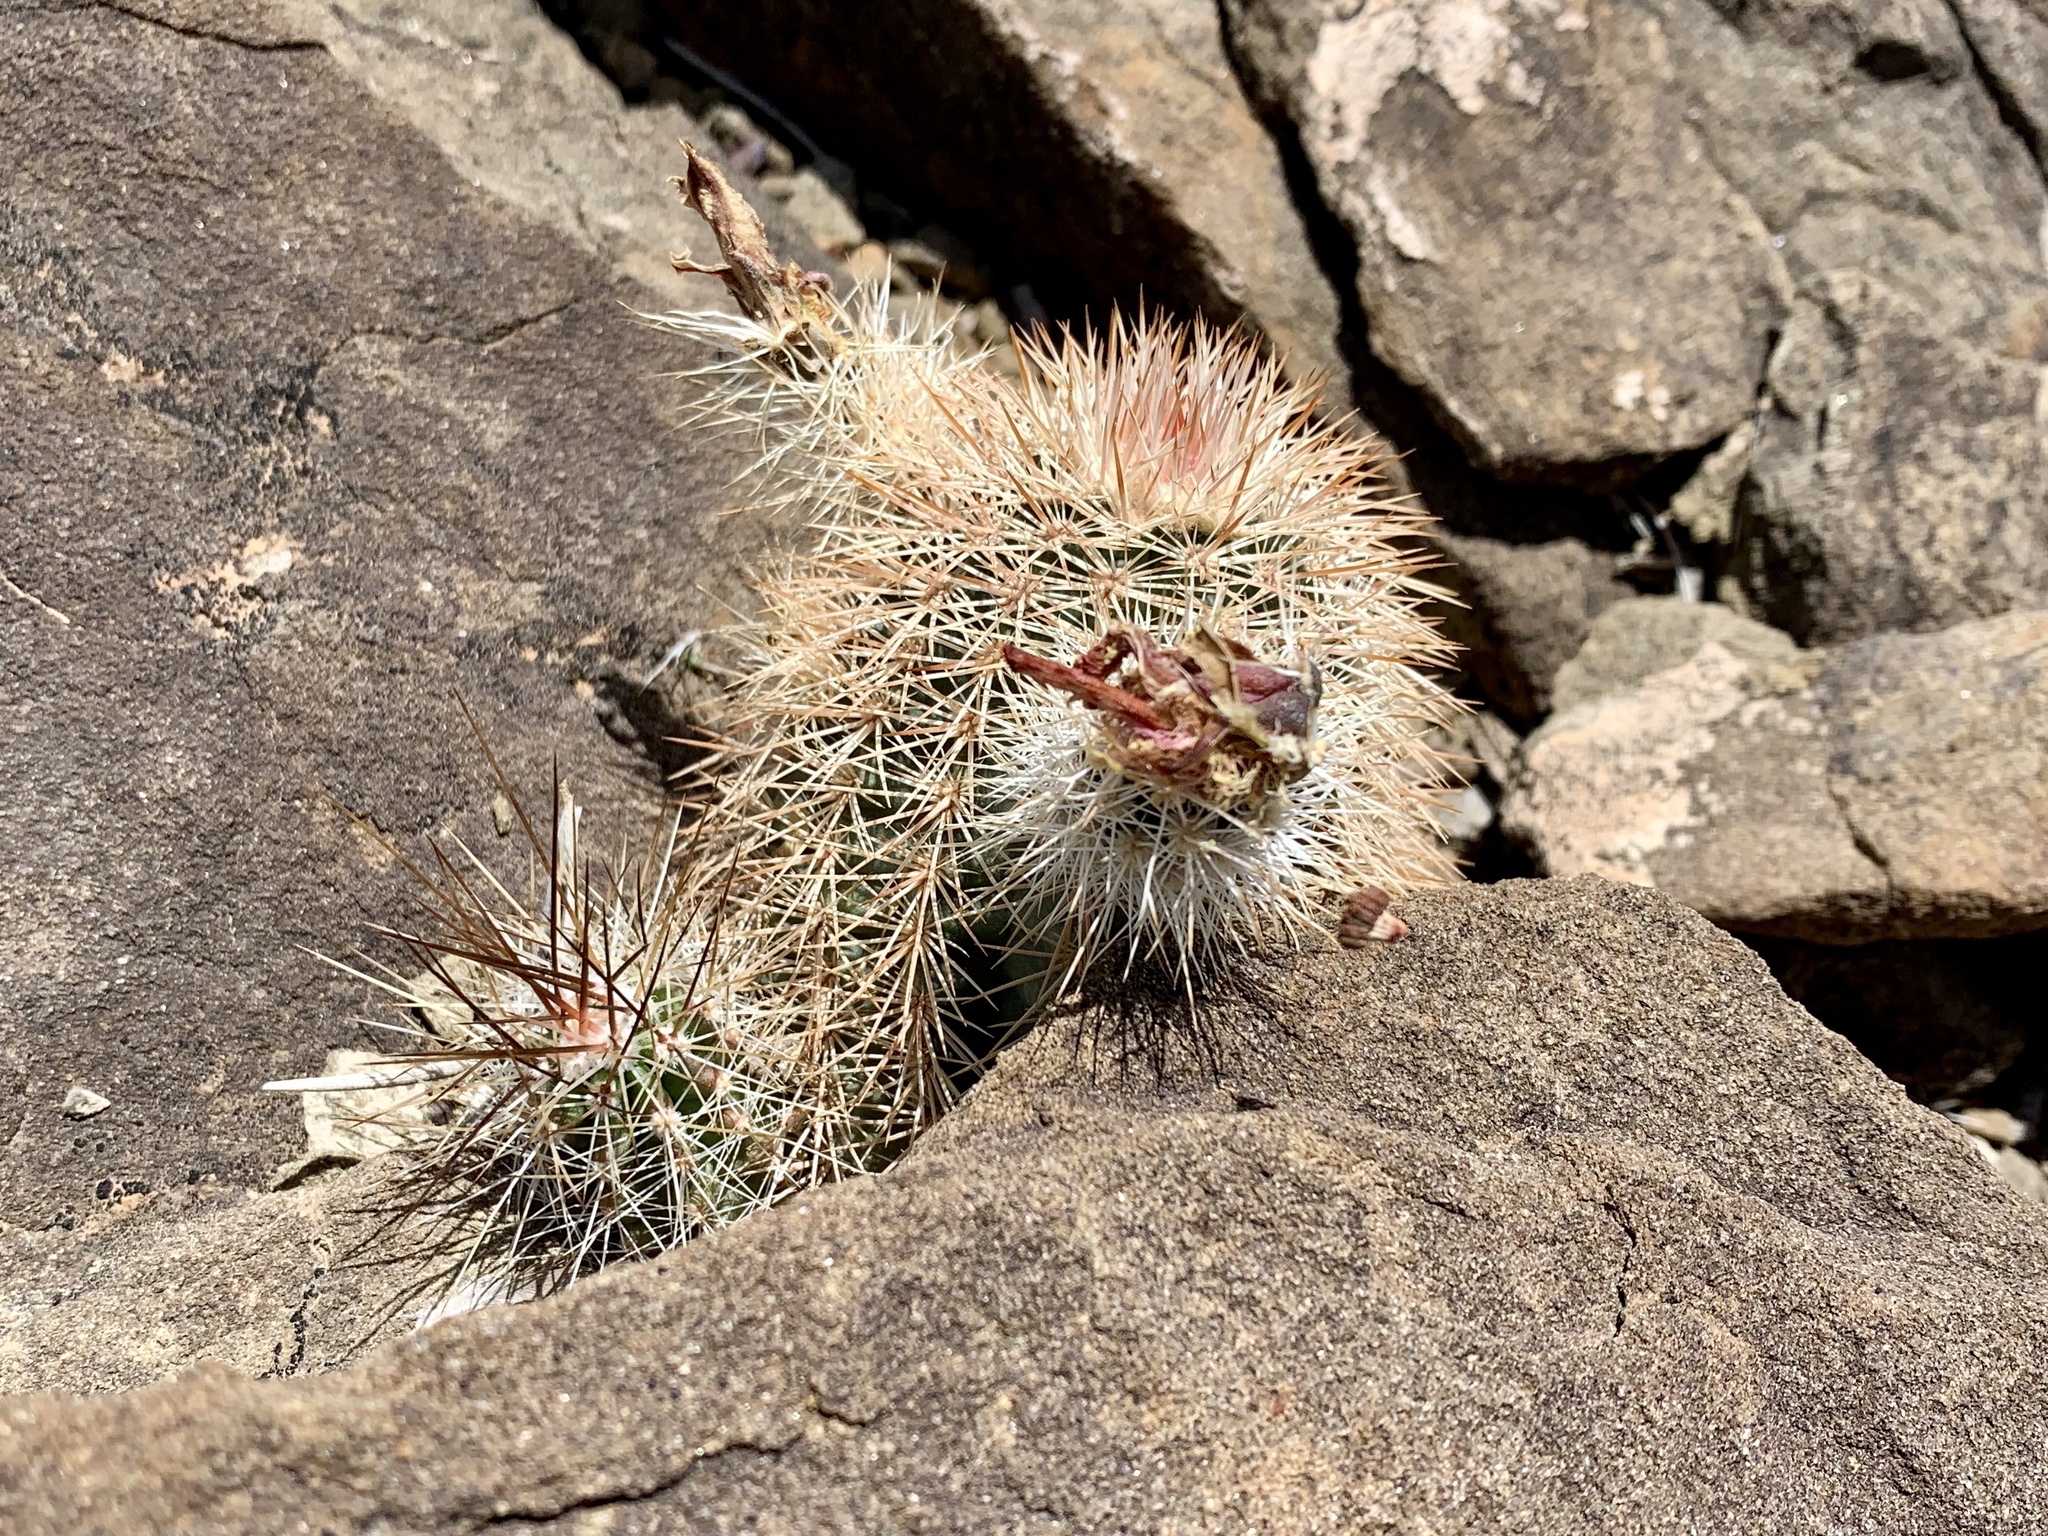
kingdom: Plantae
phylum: Tracheophyta
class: Magnoliopsida
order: Caryophyllales
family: Cactaceae
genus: Echinocereus
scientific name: Echinocereus dasyacanthus
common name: Spiny hedgehog cactus
